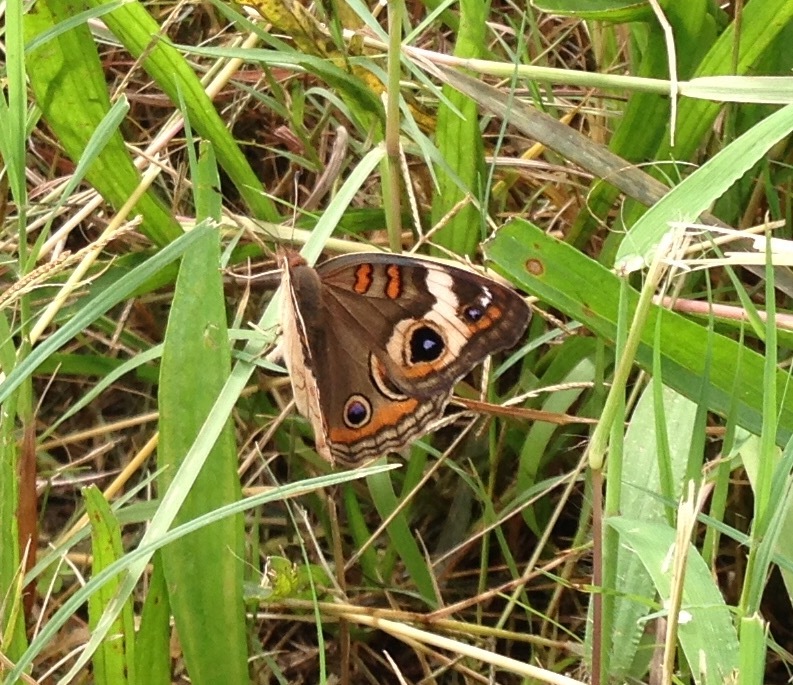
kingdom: Animalia
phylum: Arthropoda
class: Insecta
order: Lepidoptera
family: Nymphalidae
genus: Junonia
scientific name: Junonia coenia
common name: Common buckeye
